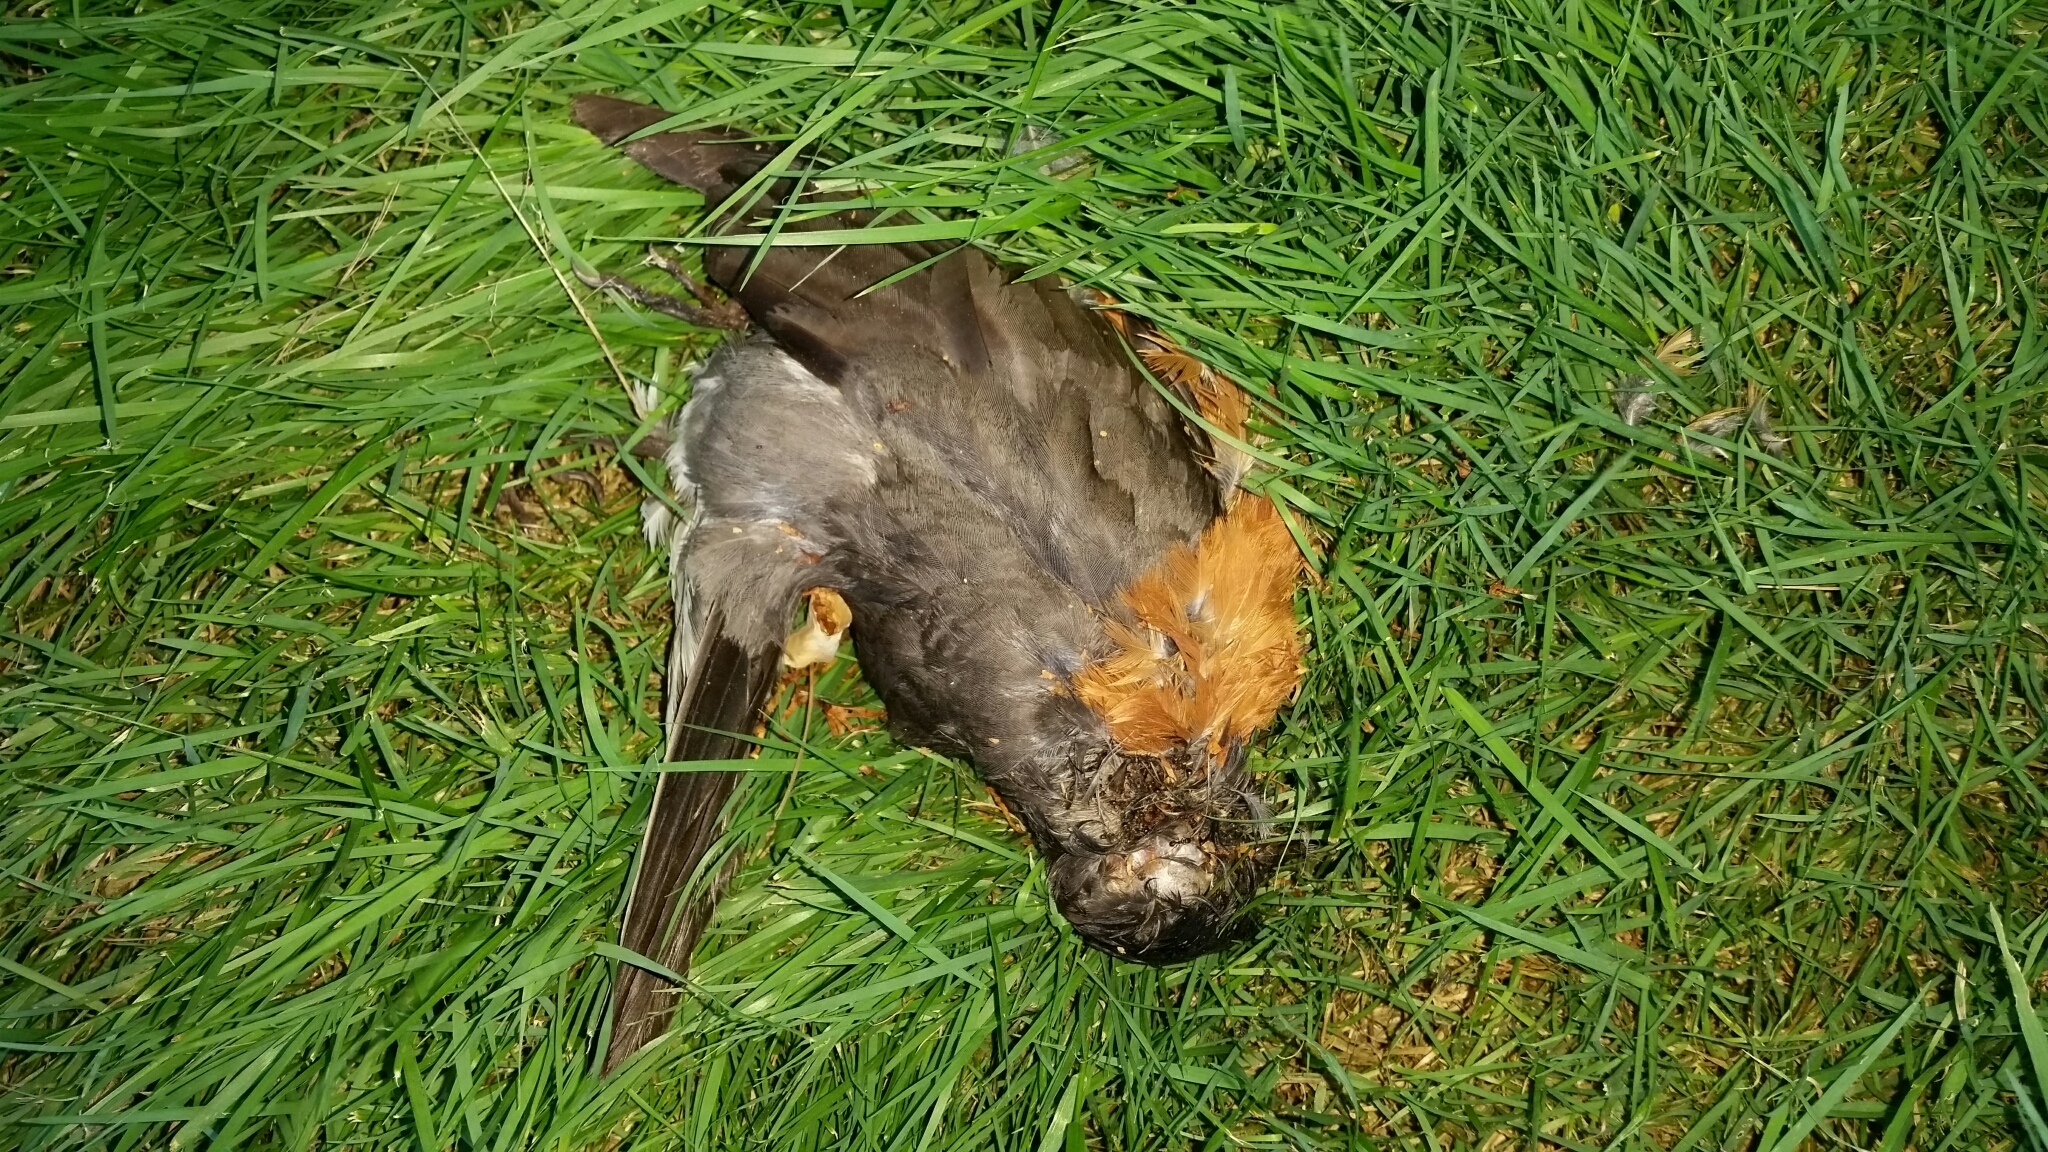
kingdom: Animalia
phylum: Chordata
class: Aves
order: Passeriformes
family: Turdidae
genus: Turdus
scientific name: Turdus migratorius
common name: American robin
